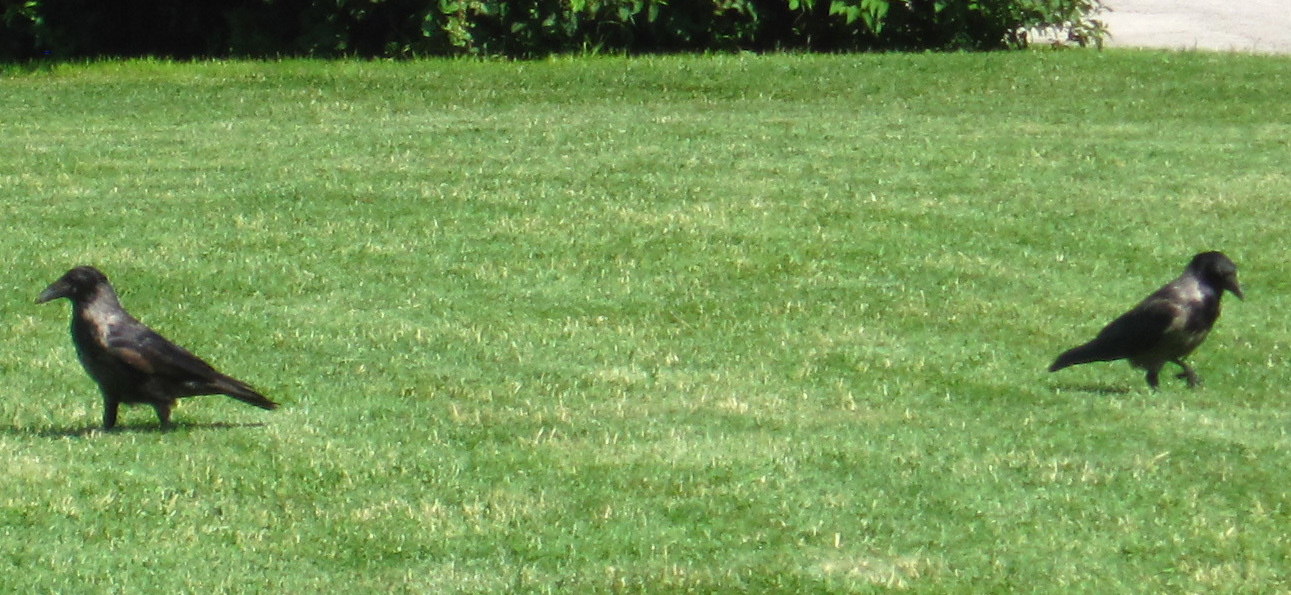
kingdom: Animalia
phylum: Chordata
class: Aves
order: Passeriformes
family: Corvidae
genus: Corvus
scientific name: Corvus
